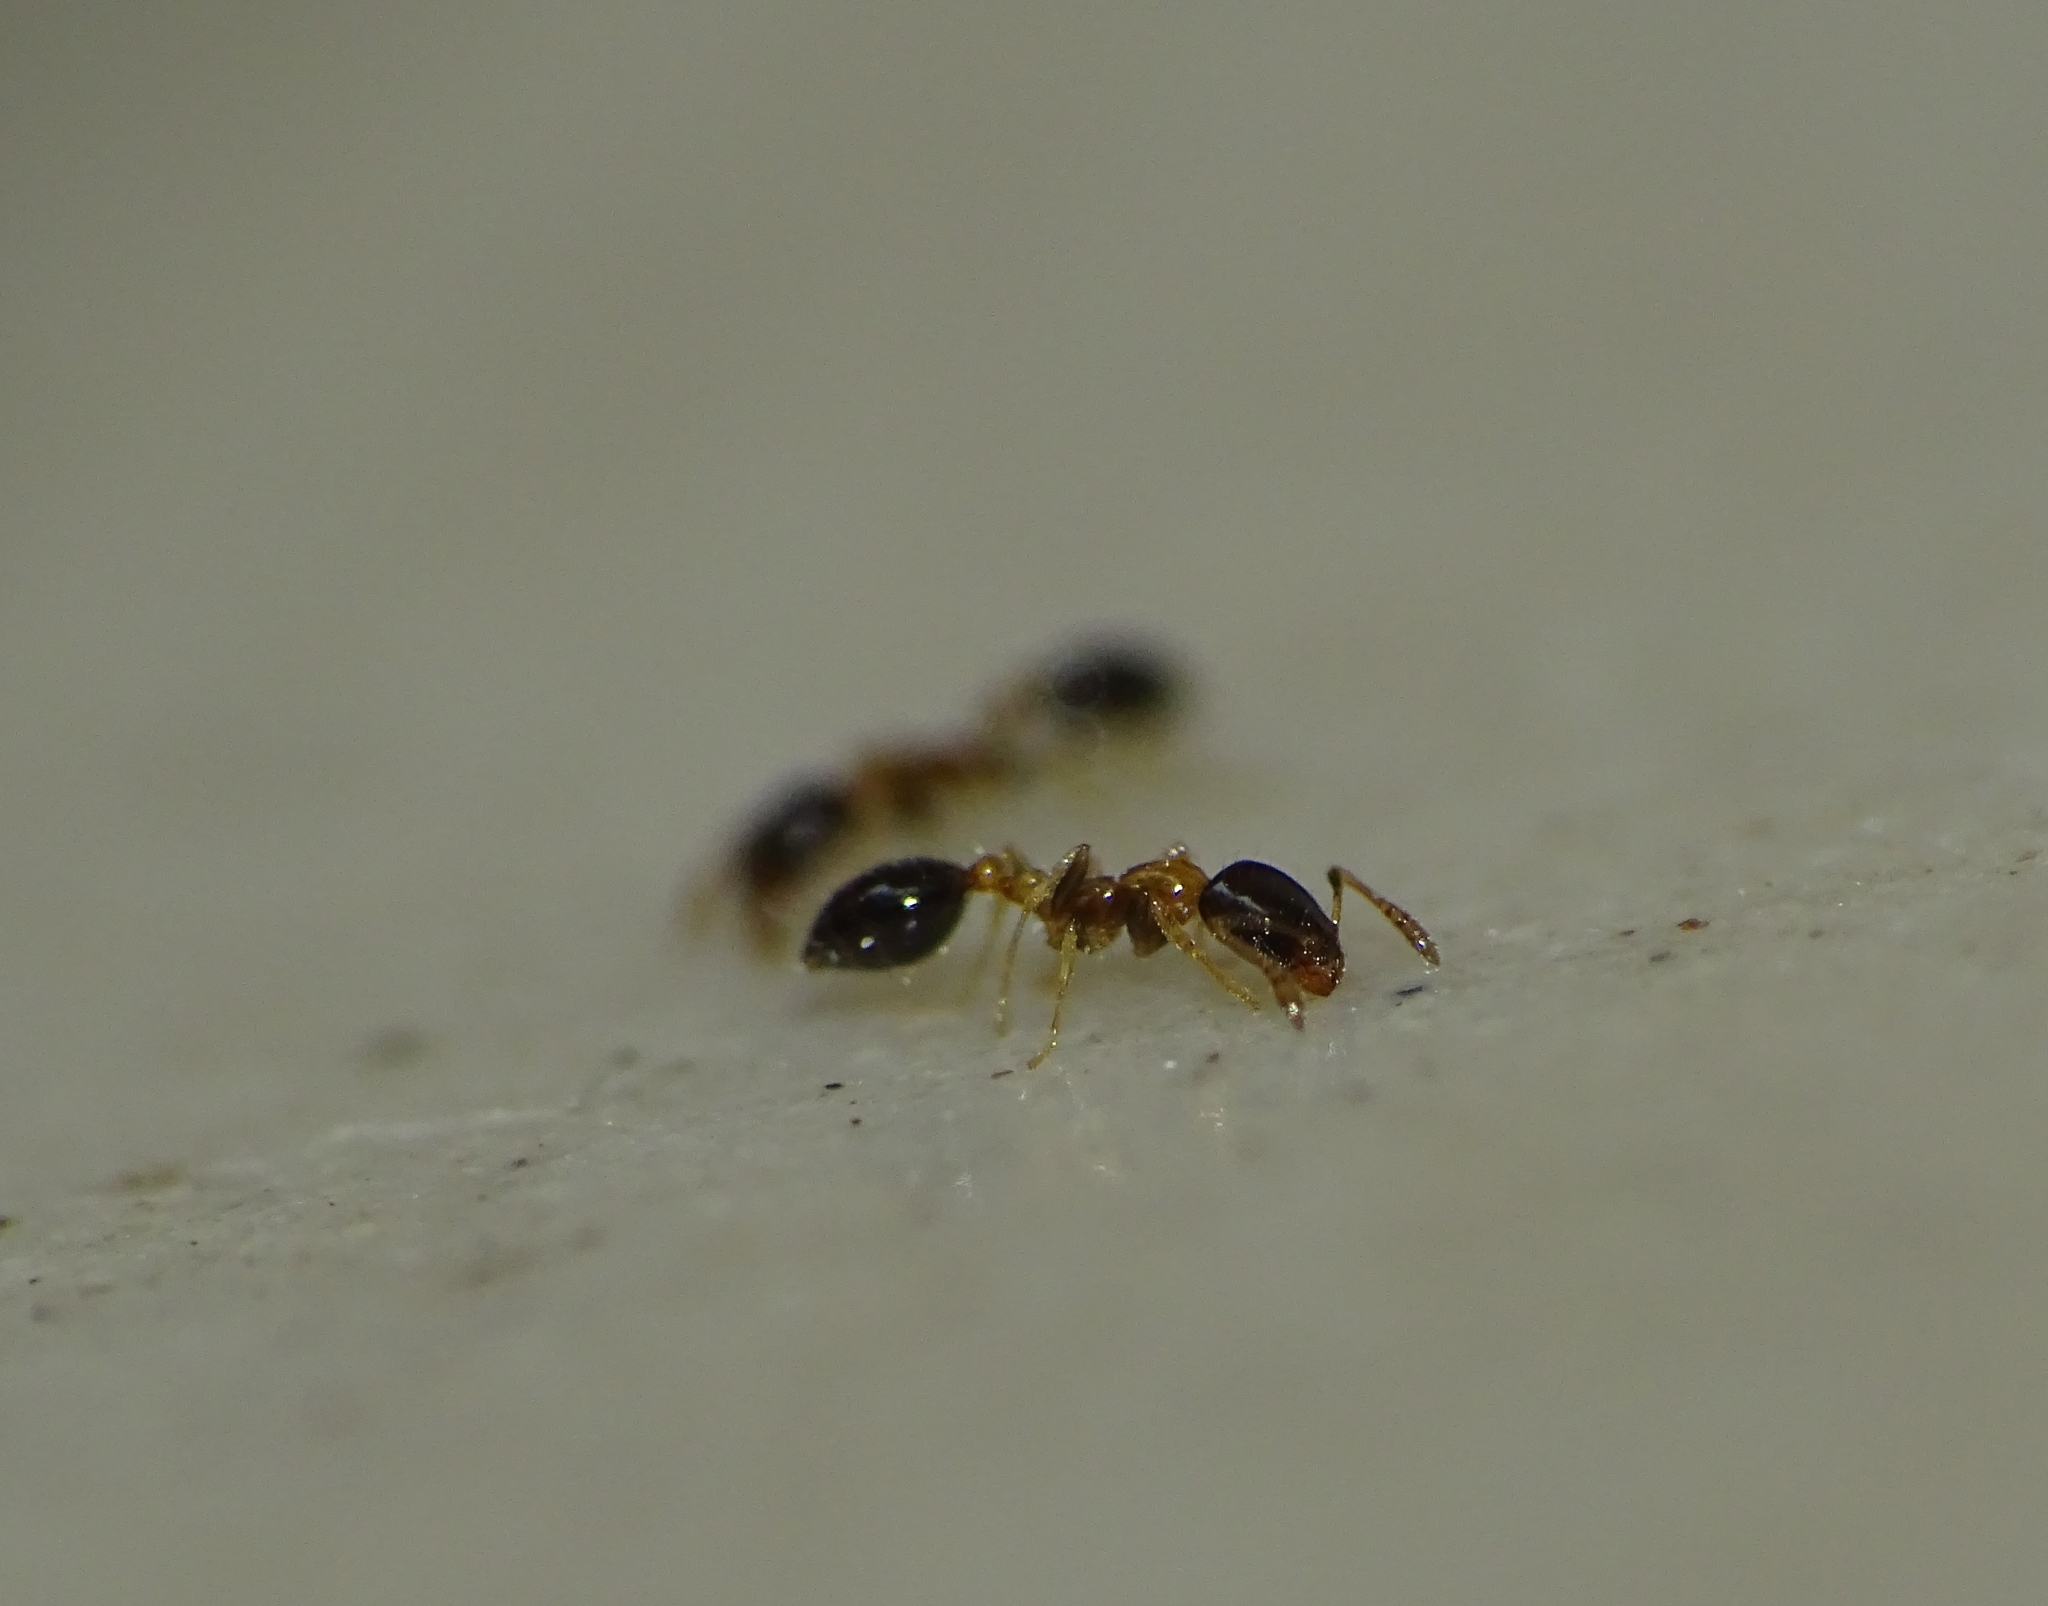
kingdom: Animalia
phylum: Arthropoda
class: Insecta
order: Hymenoptera
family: Formicidae
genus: Monomorium
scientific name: Monomorium floricola
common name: Bicolored trailing ant
